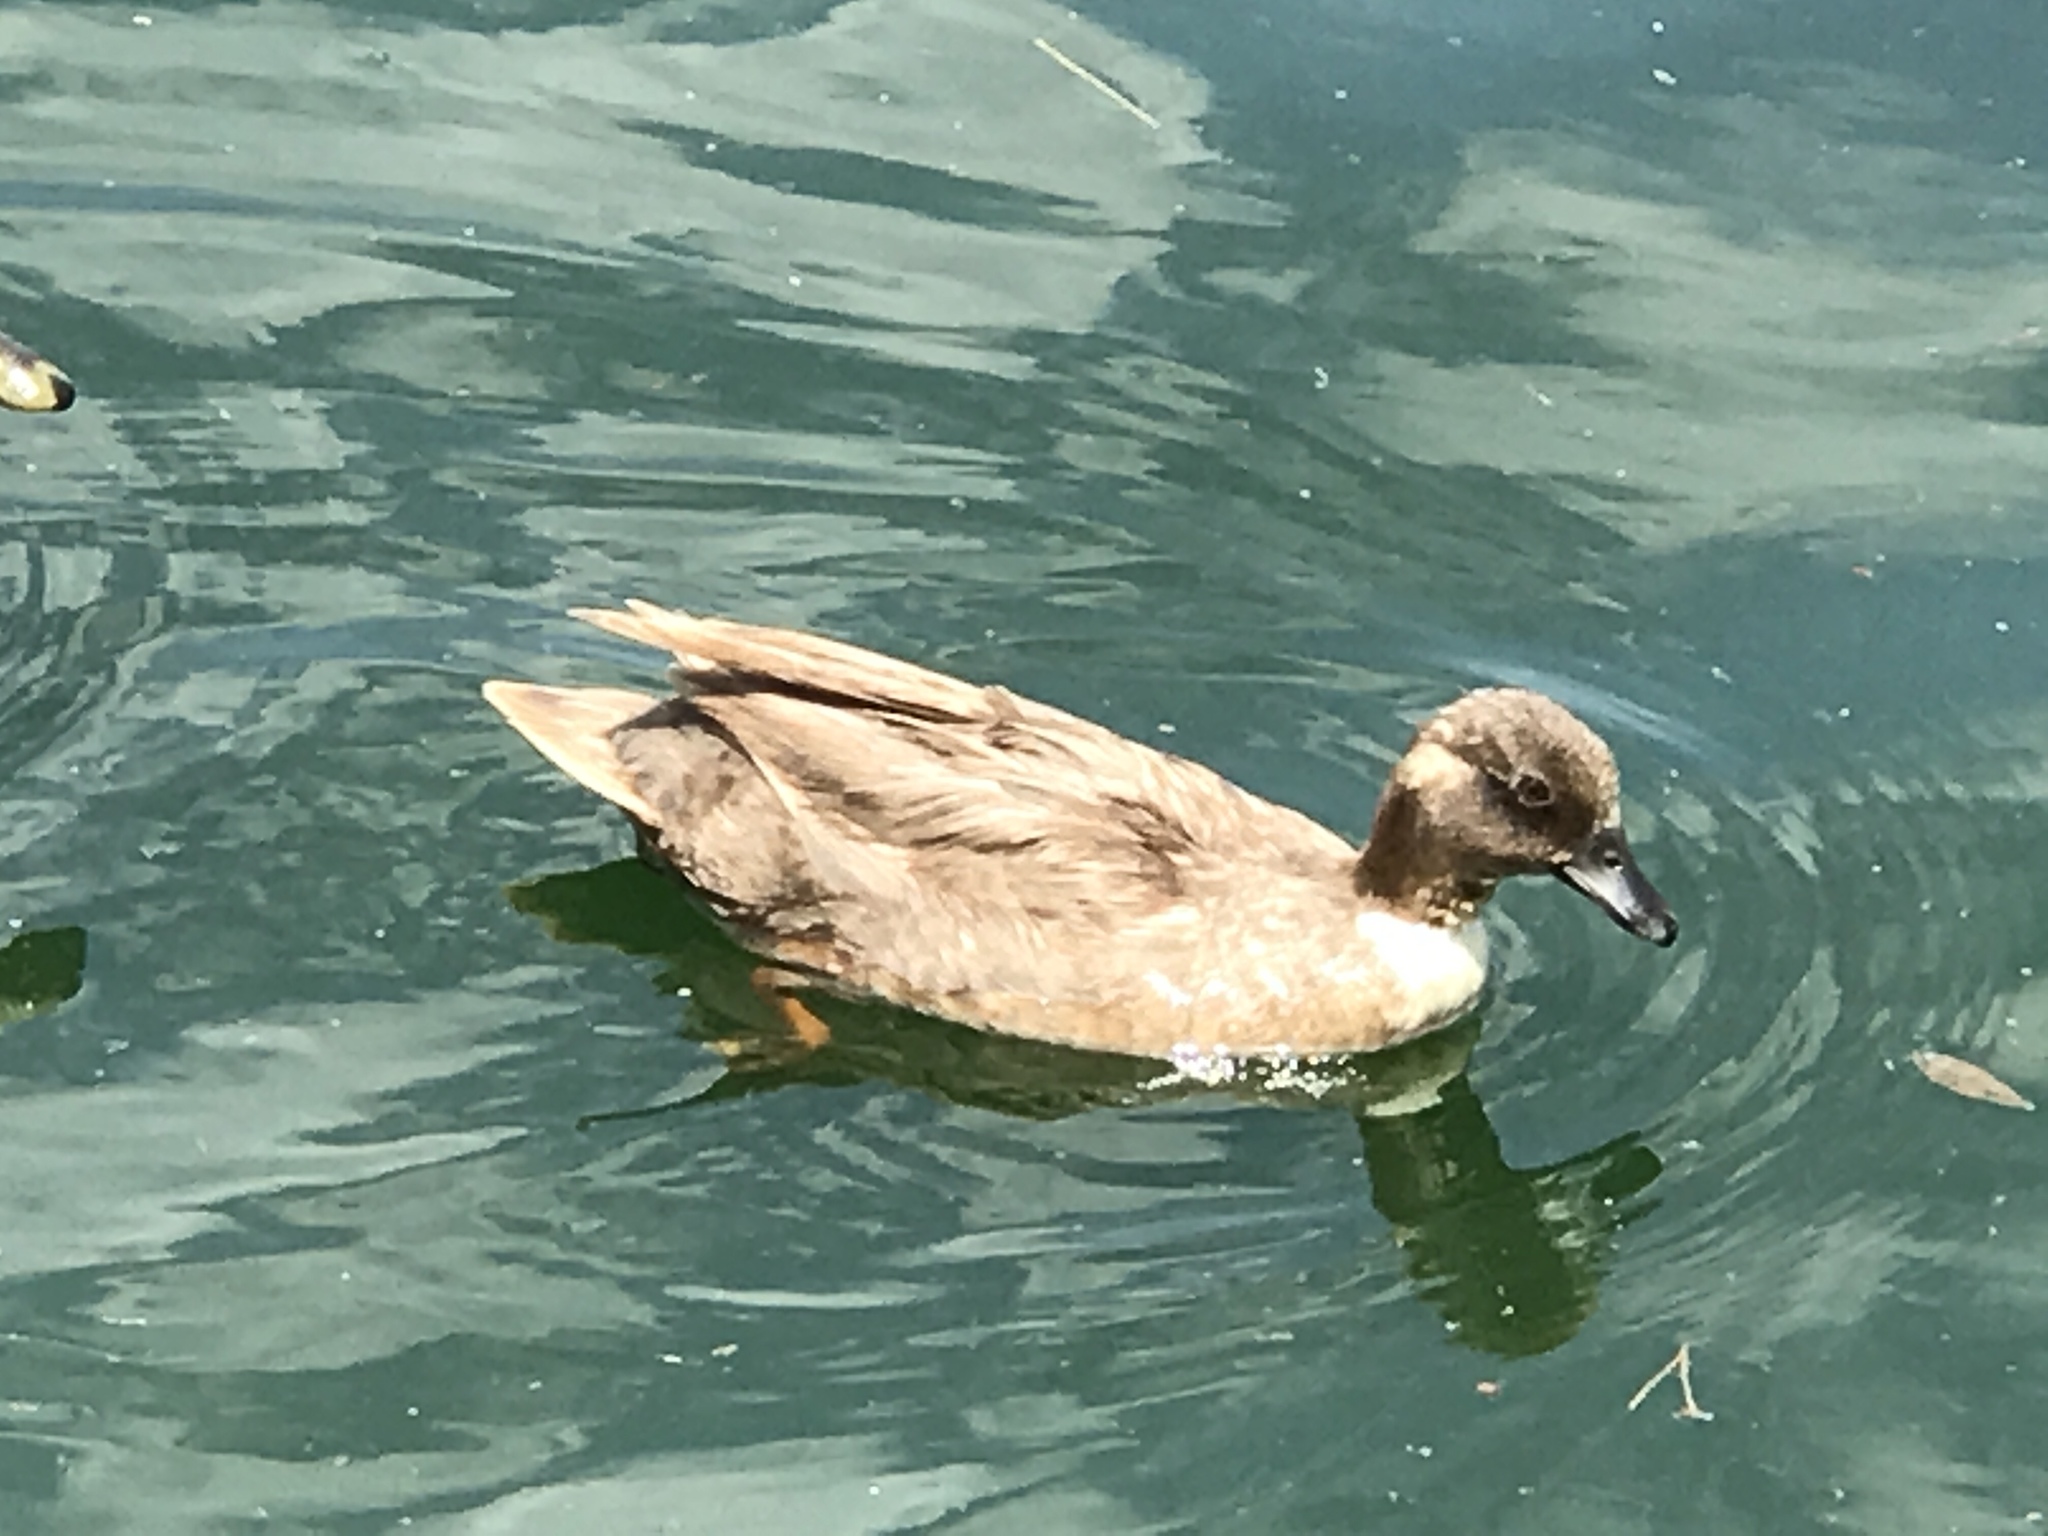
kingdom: Animalia
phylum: Chordata
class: Aves
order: Anseriformes
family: Anatidae
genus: Anas
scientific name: Anas platyrhynchos
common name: Mallard
